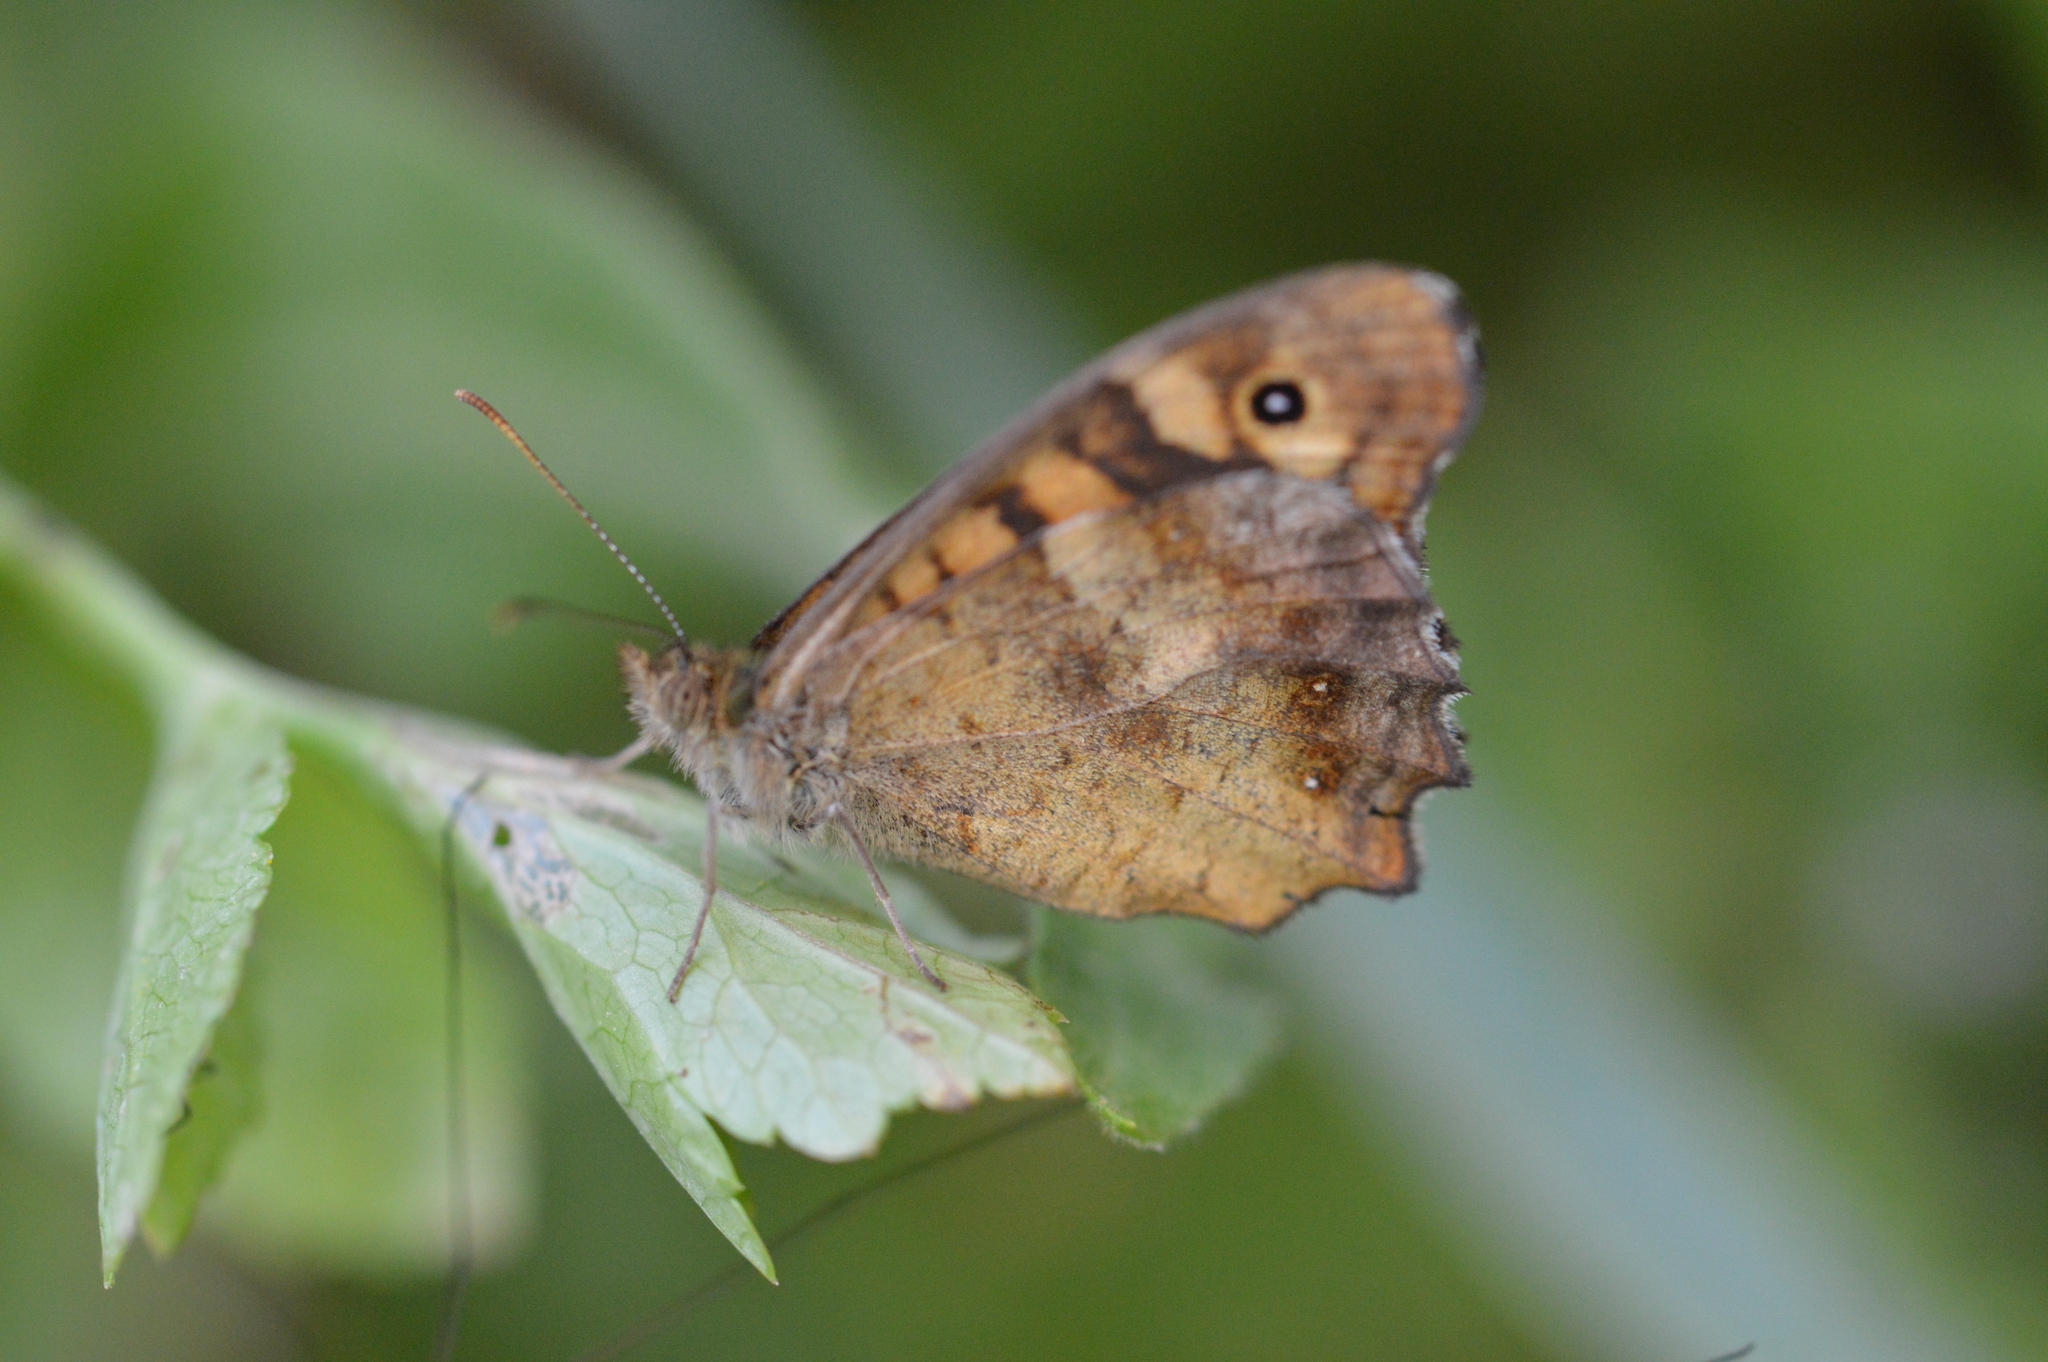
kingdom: Animalia
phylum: Arthropoda
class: Insecta
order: Lepidoptera
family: Nymphalidae
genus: Pararge
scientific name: Pararge aegeria
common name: Speckled wood
